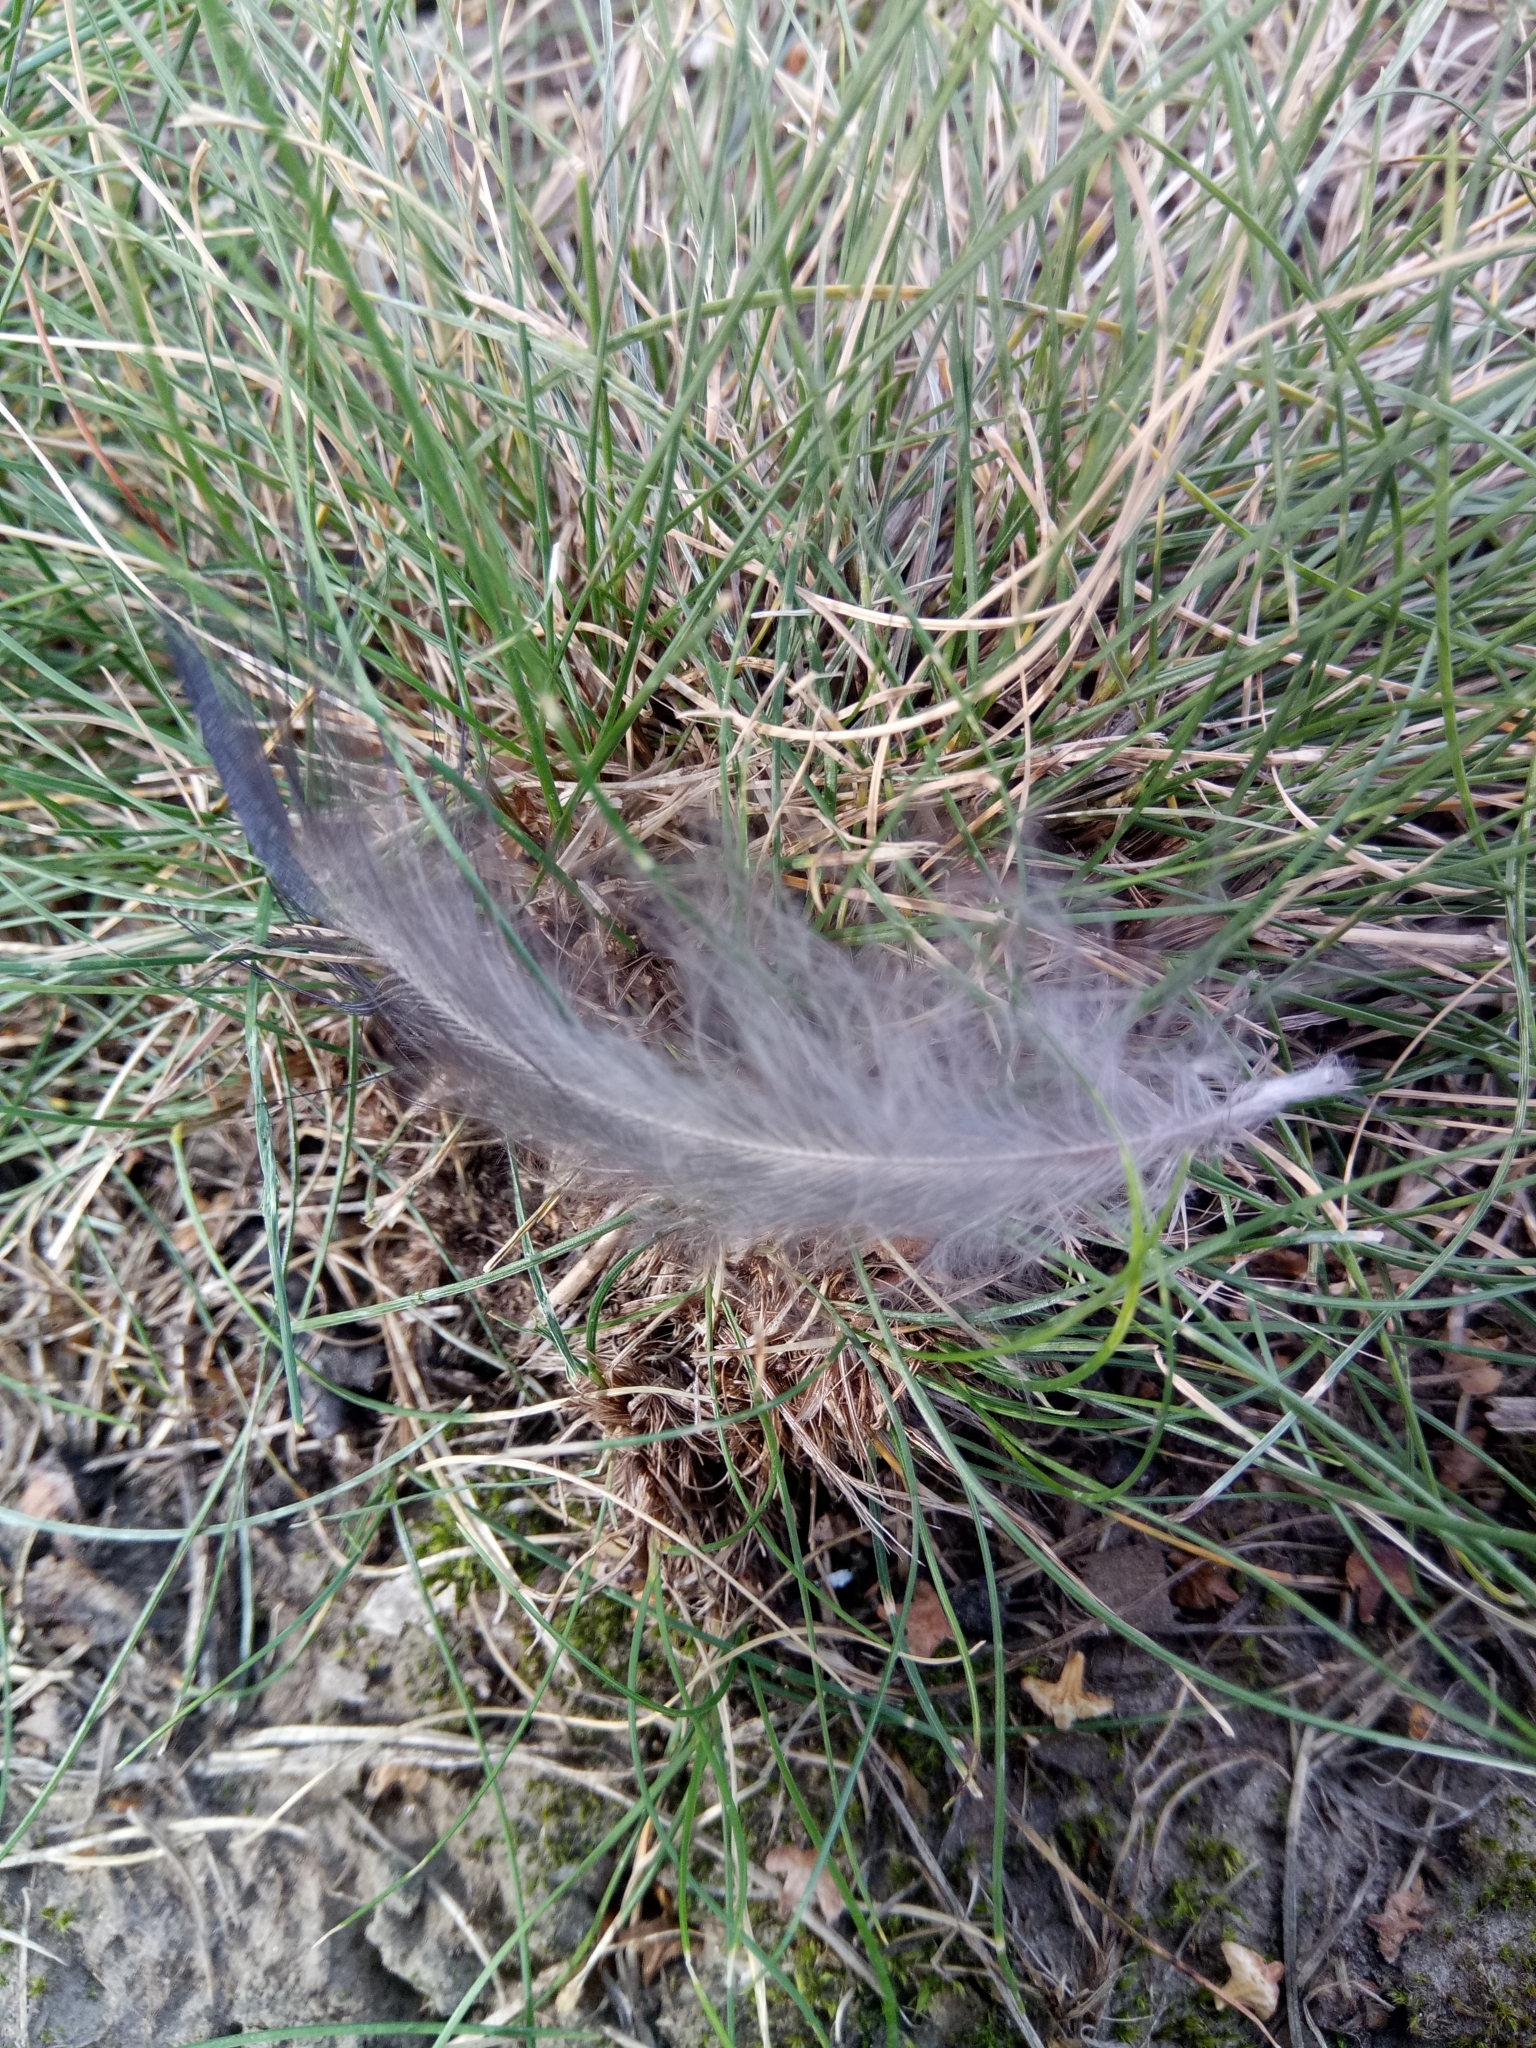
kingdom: Animalia
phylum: Chordata
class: Aves
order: Passeriformes
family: Corvidae
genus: Corvus
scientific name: Corvus cornix
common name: Hooded crow
